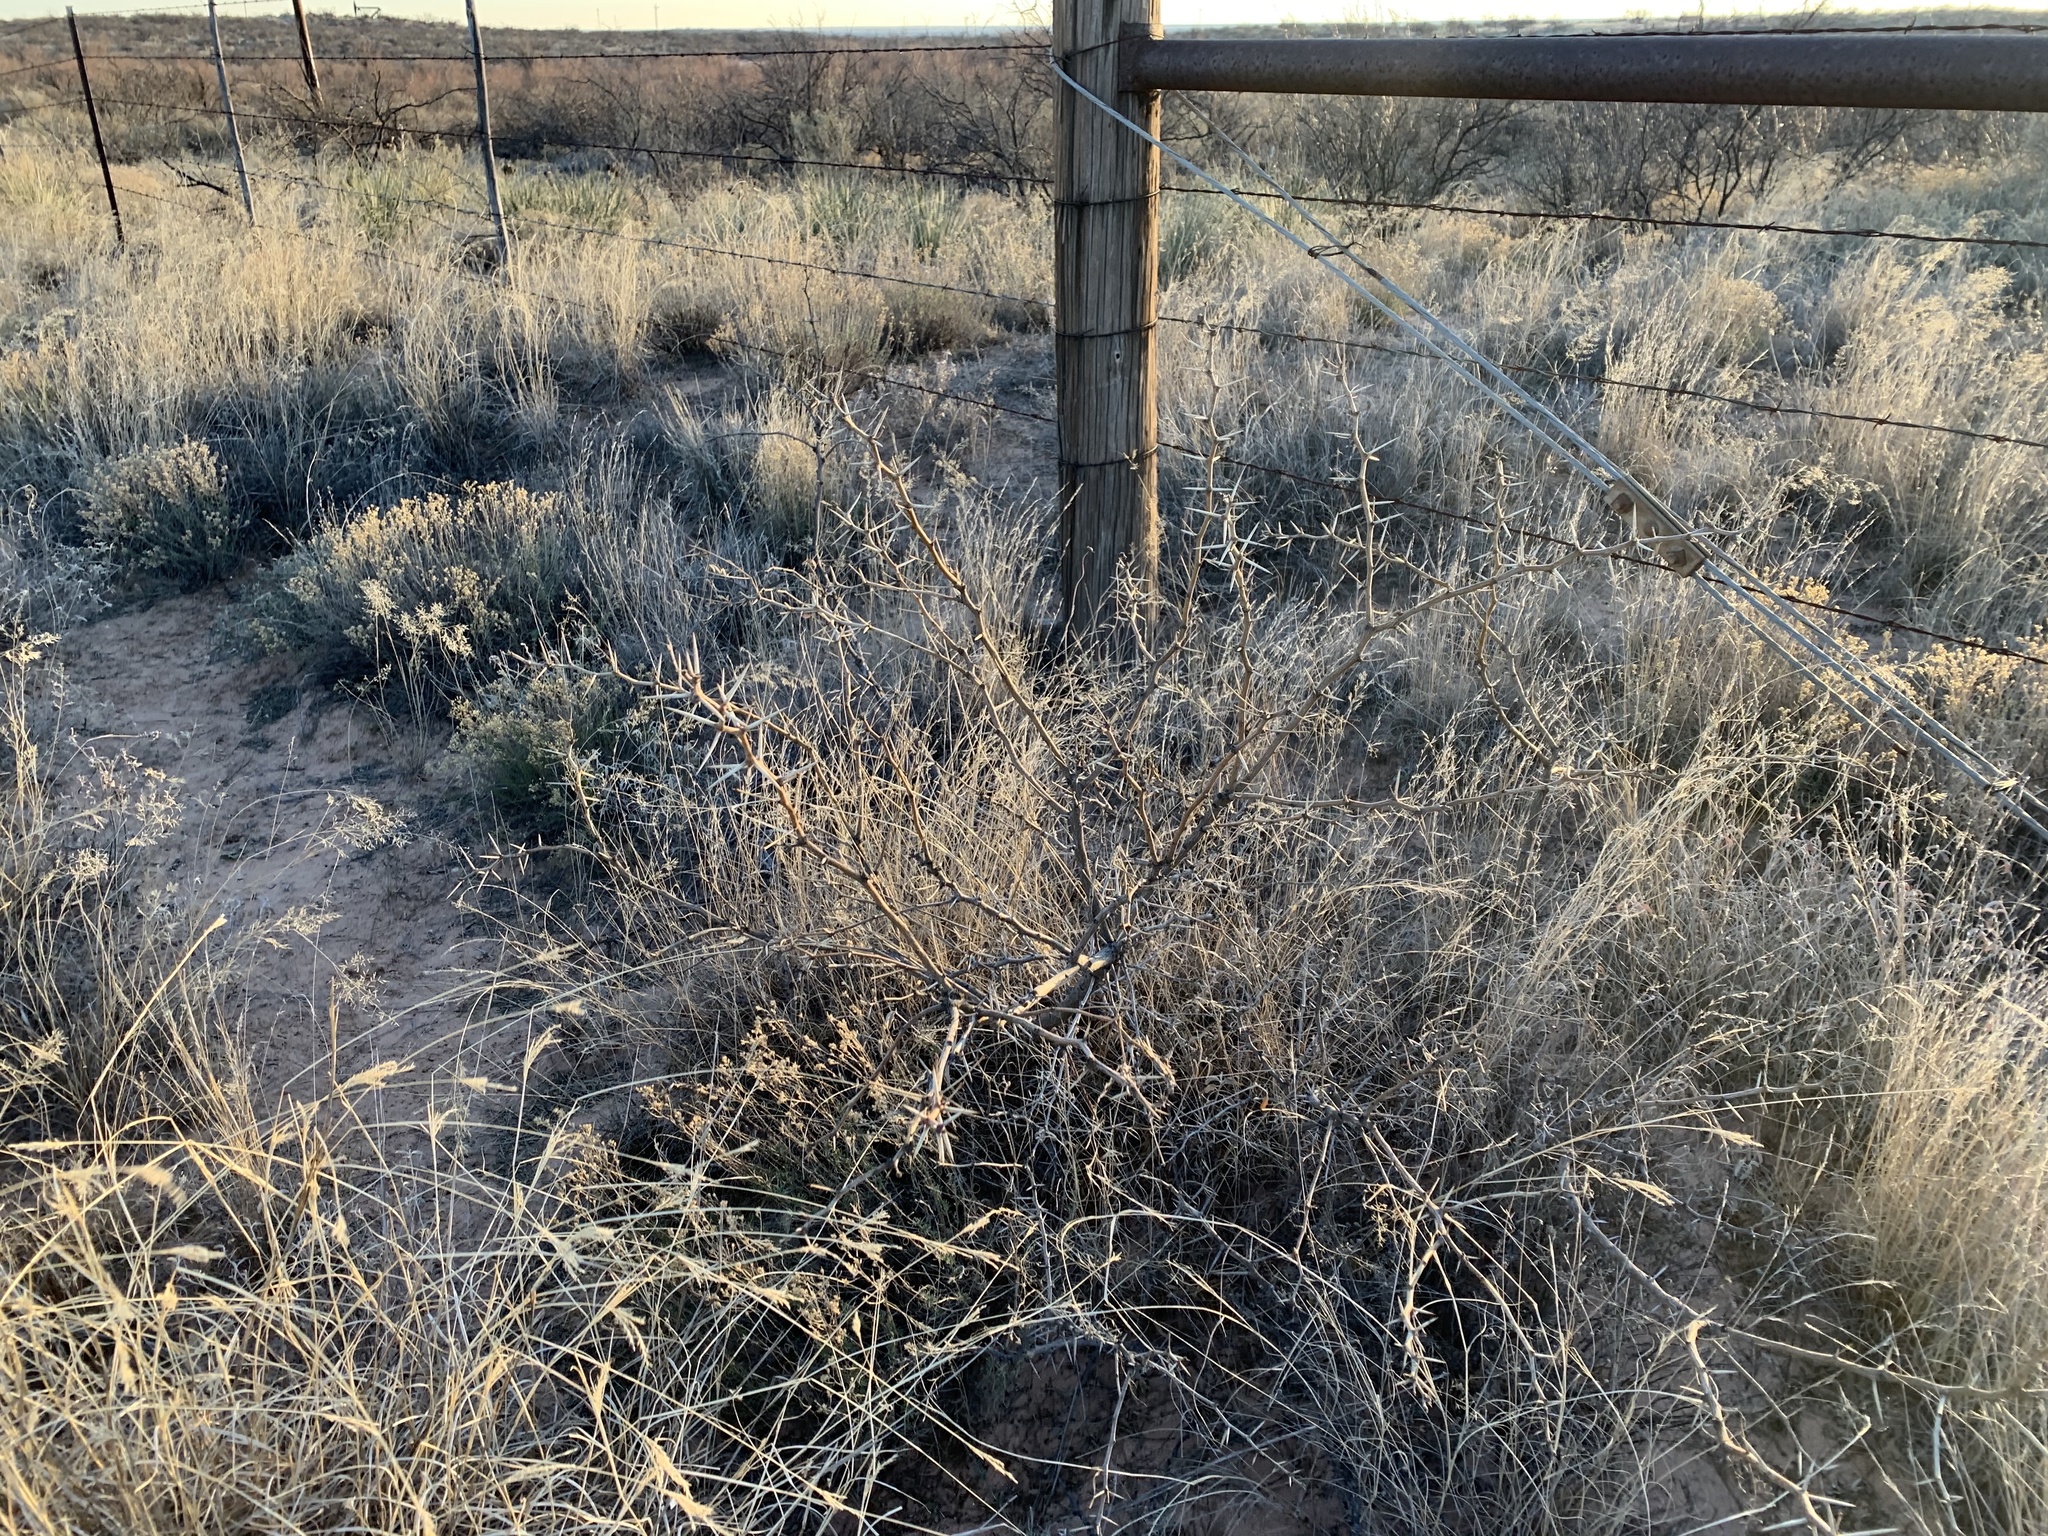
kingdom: Plantae
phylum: Tracheophyta
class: Magnoliopsida
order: Fabales
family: Fabaceae
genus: Prosopis
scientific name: Prosopis glandulosa
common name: Honey mesquite
